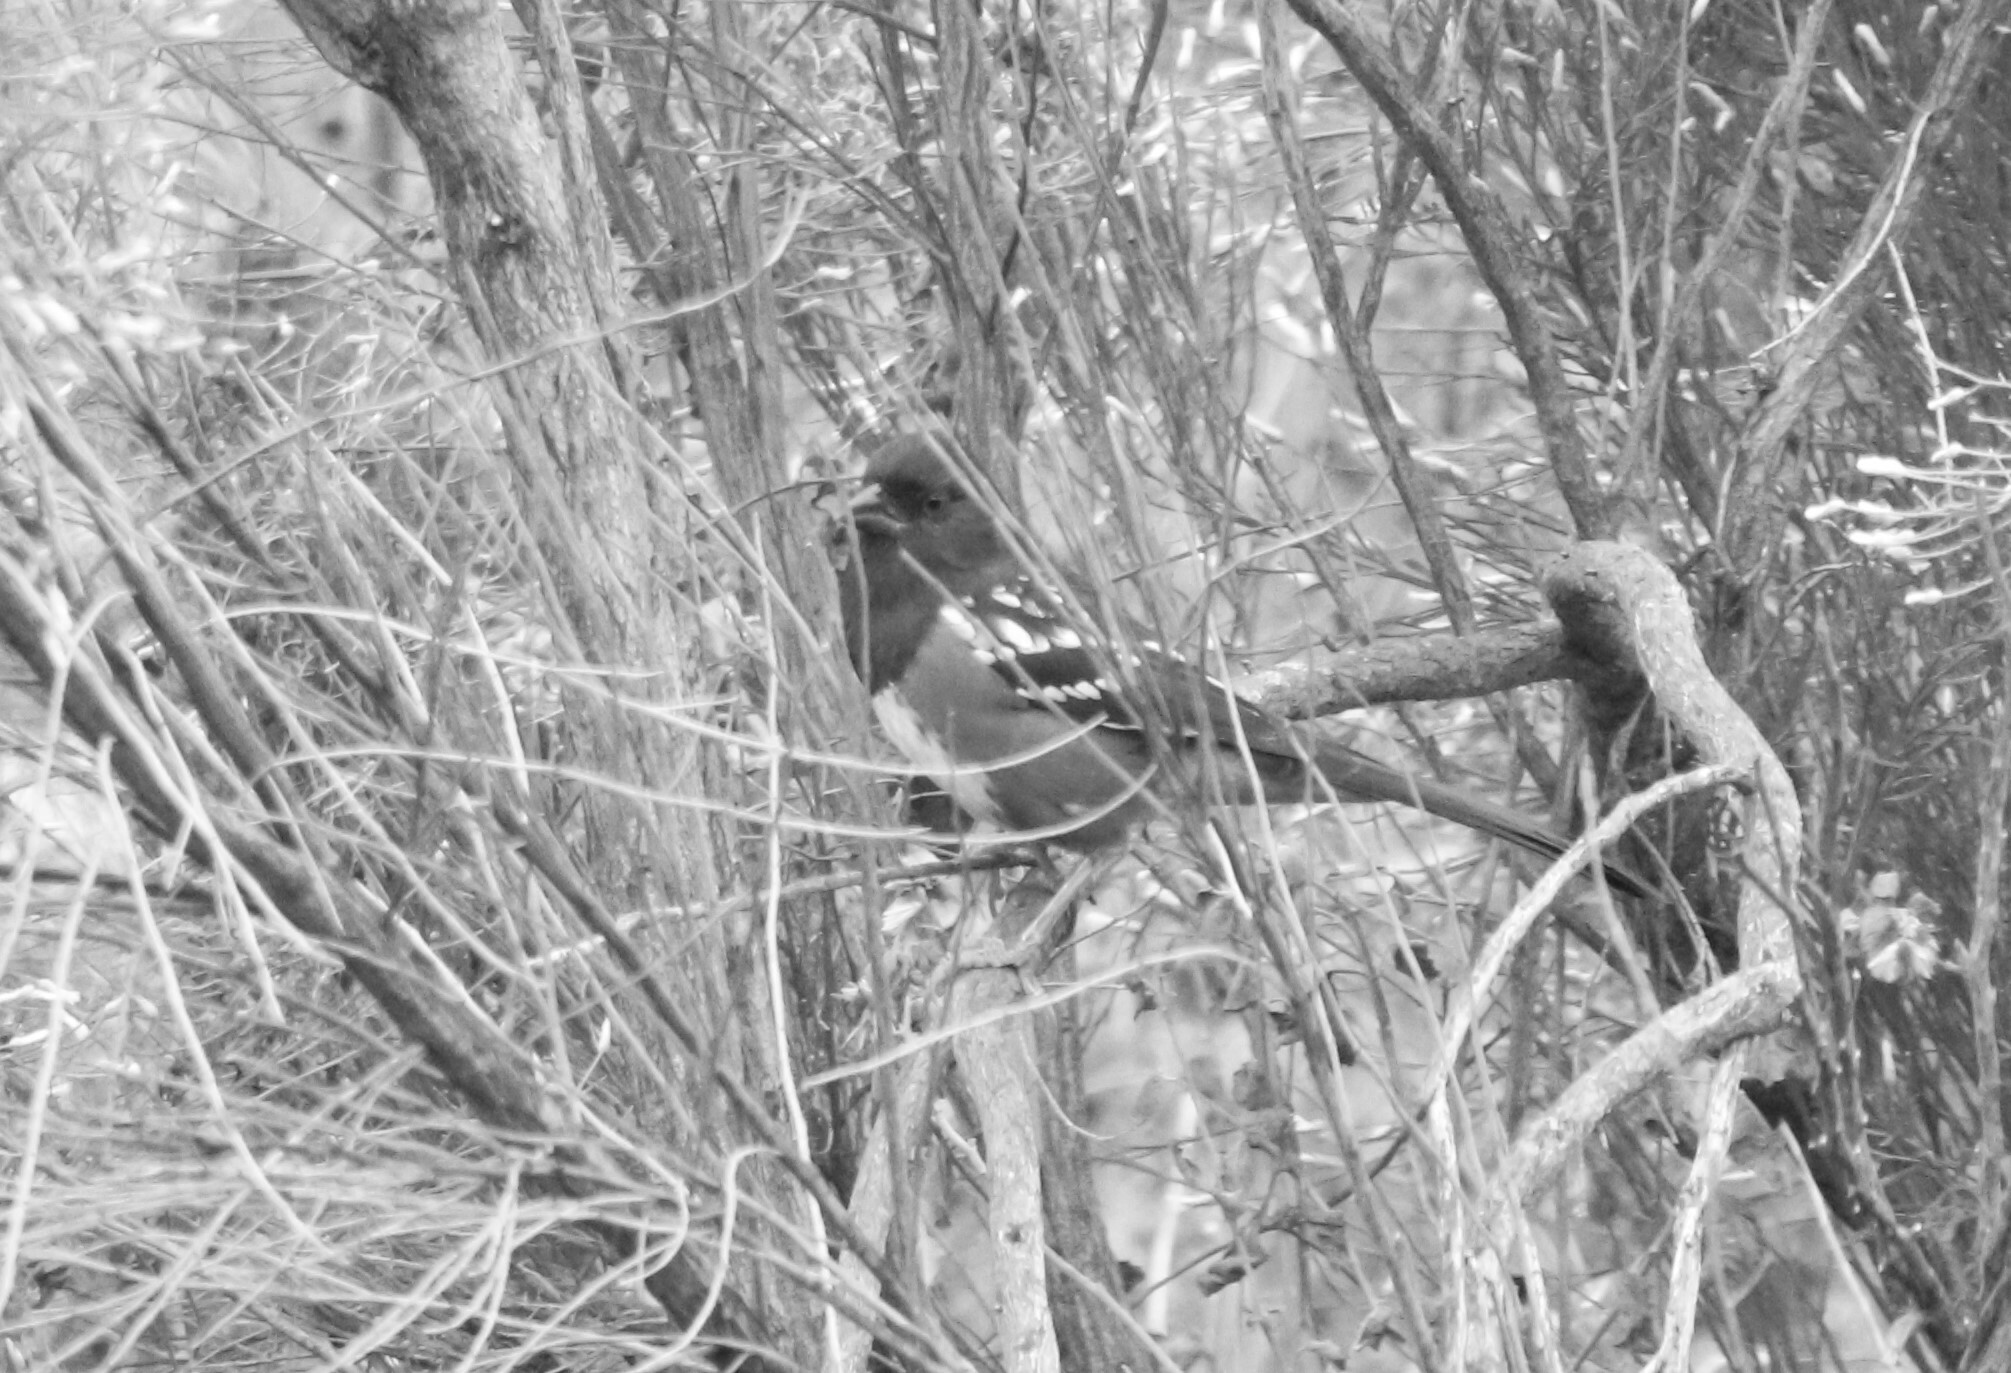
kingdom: Animalia
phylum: Chordata
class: Aves
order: Passeriformes
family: Passerellidae
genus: Pipilo
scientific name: Pipilo maculatus
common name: Spotted towhee
